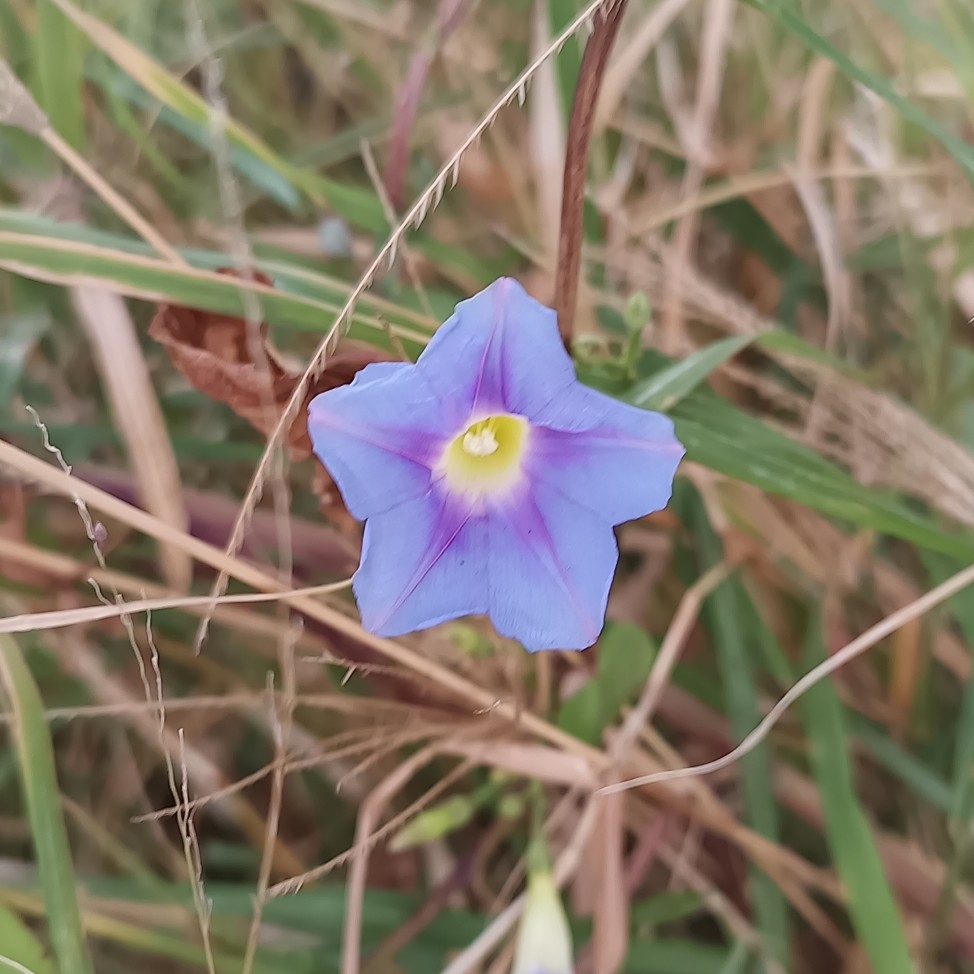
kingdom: Plantae
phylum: Tracheophyta
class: Magnoliopsida
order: Solanales
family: Convolvulaceae
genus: Ipomoea
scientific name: Ipomoea parasitica
